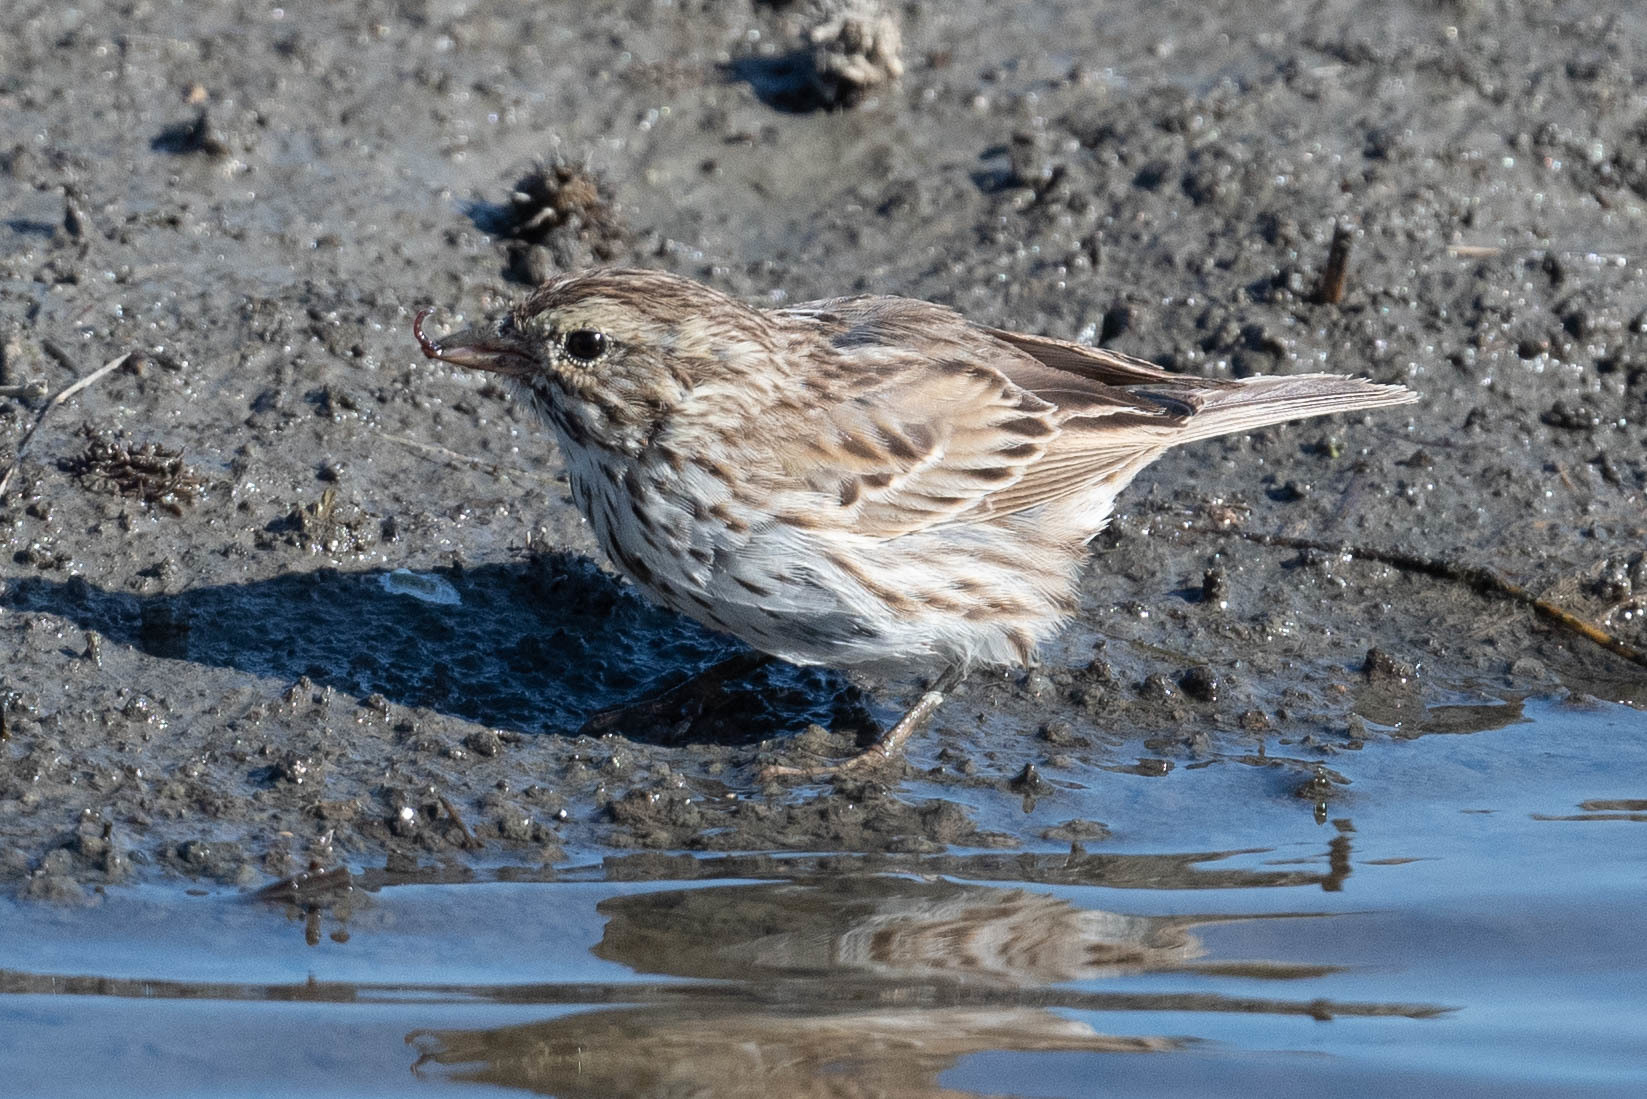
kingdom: Animalia
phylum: Chordata
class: Aves
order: Passeriformes
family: Passerellidae
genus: Passerculus
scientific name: Passerculus sandwichensis
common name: Savannah sparrow
